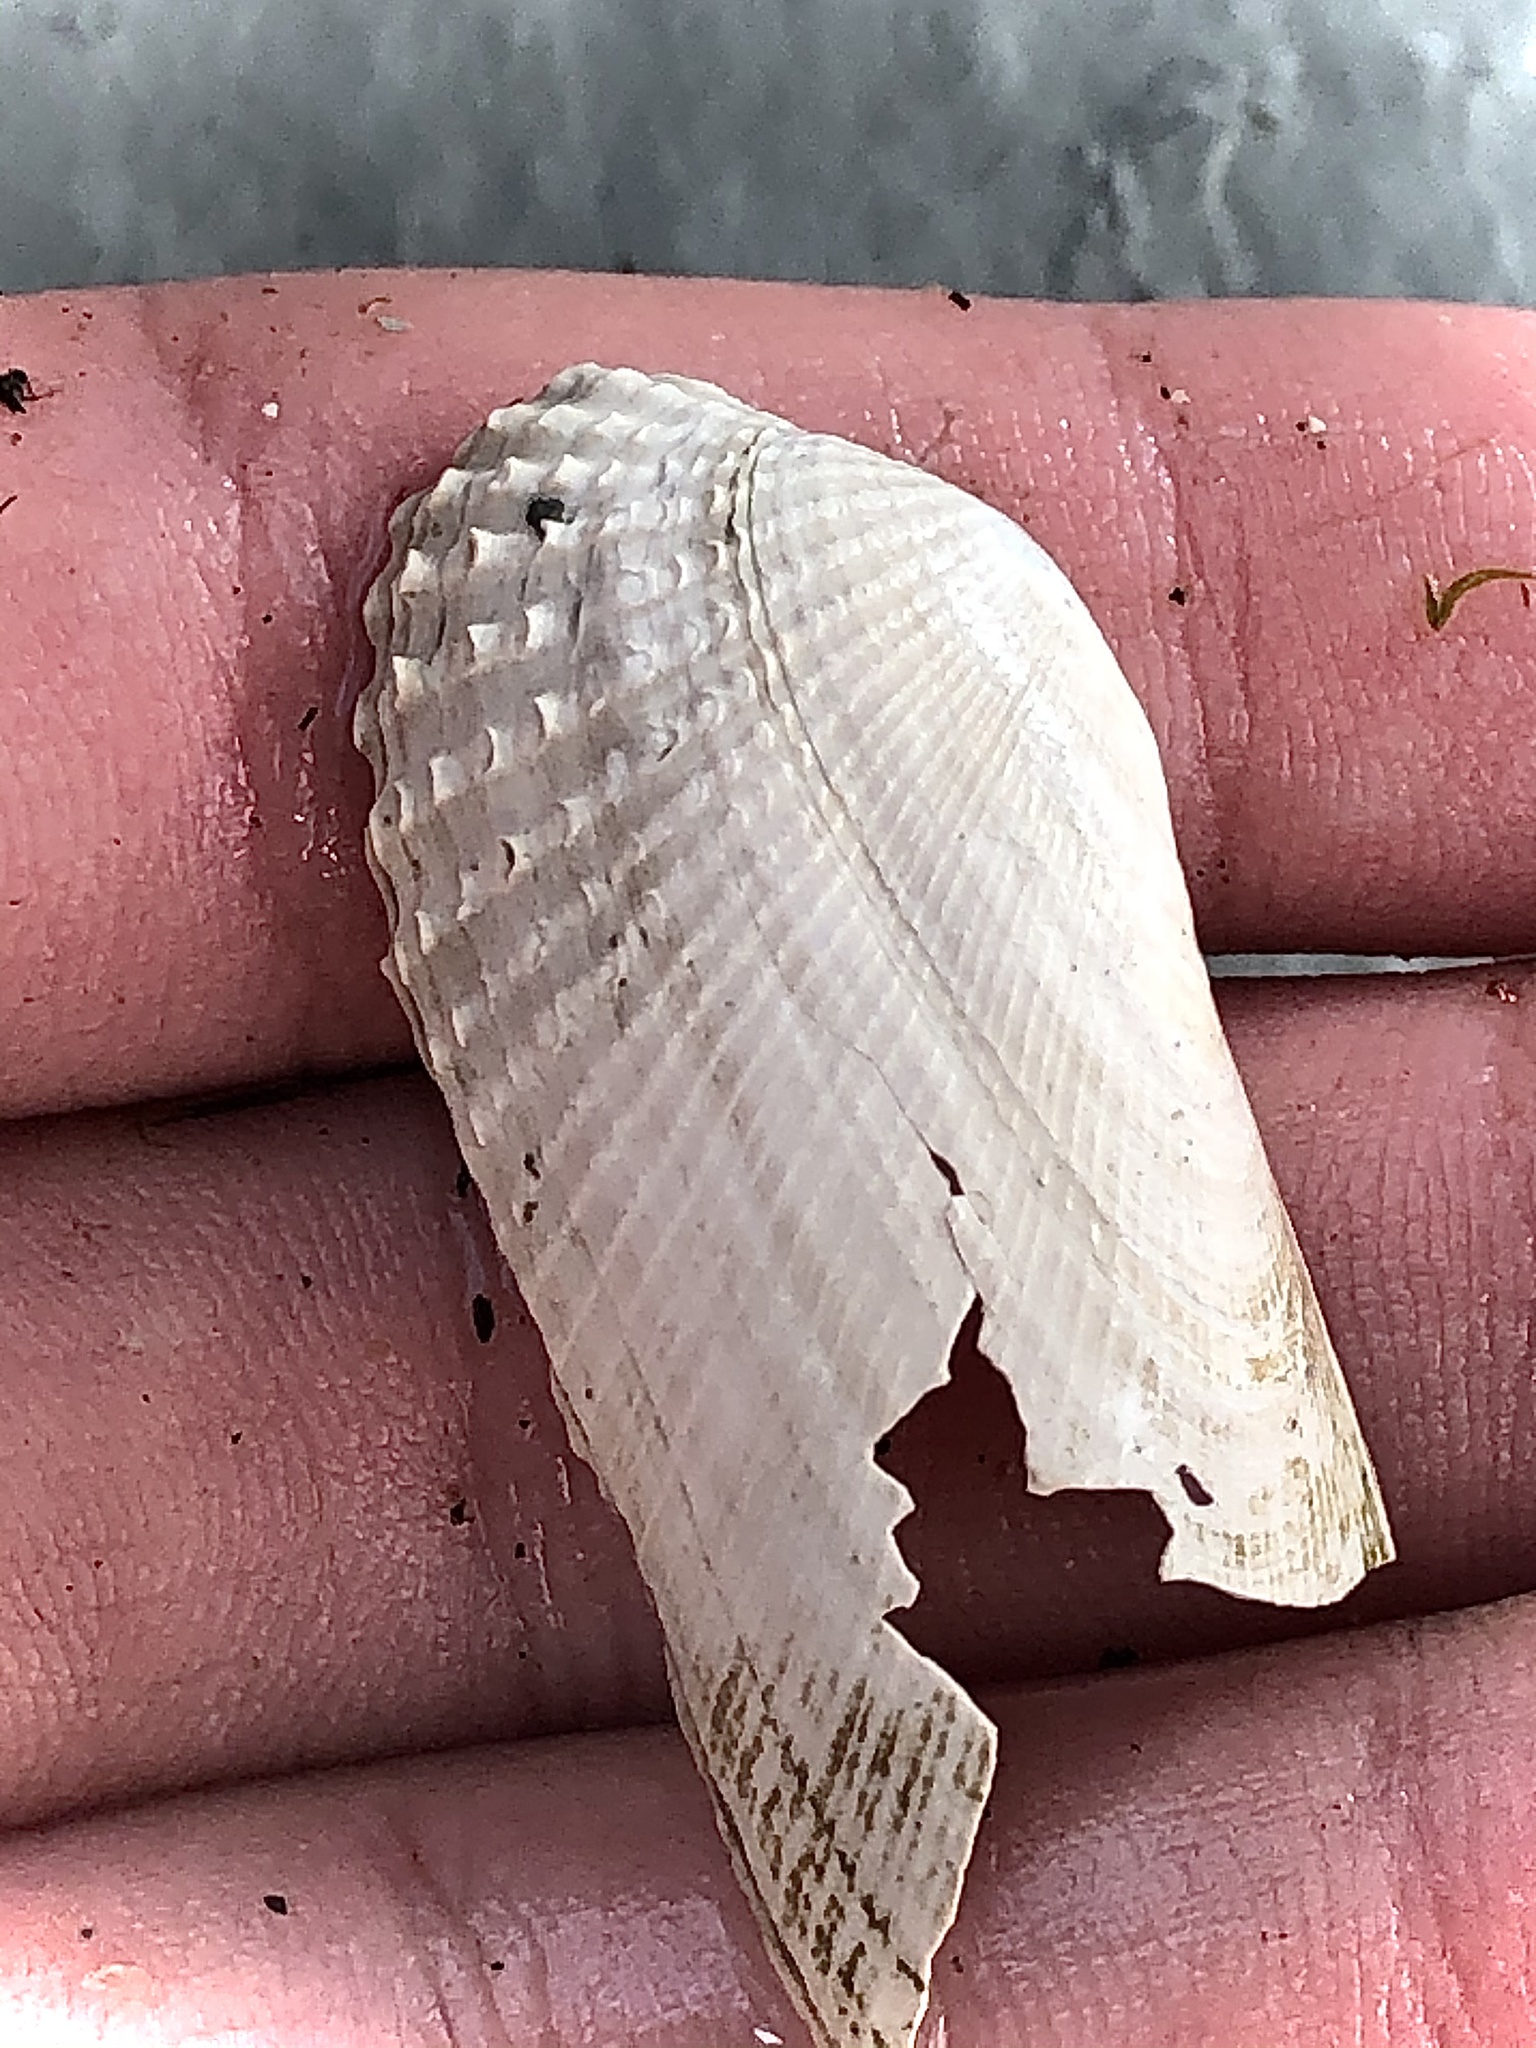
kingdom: Animalia
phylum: Mollusca
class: Bivalvia
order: Venerida
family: Veneridae
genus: Petricolaria
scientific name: Petricolaria pholadiformis
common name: American piddock
